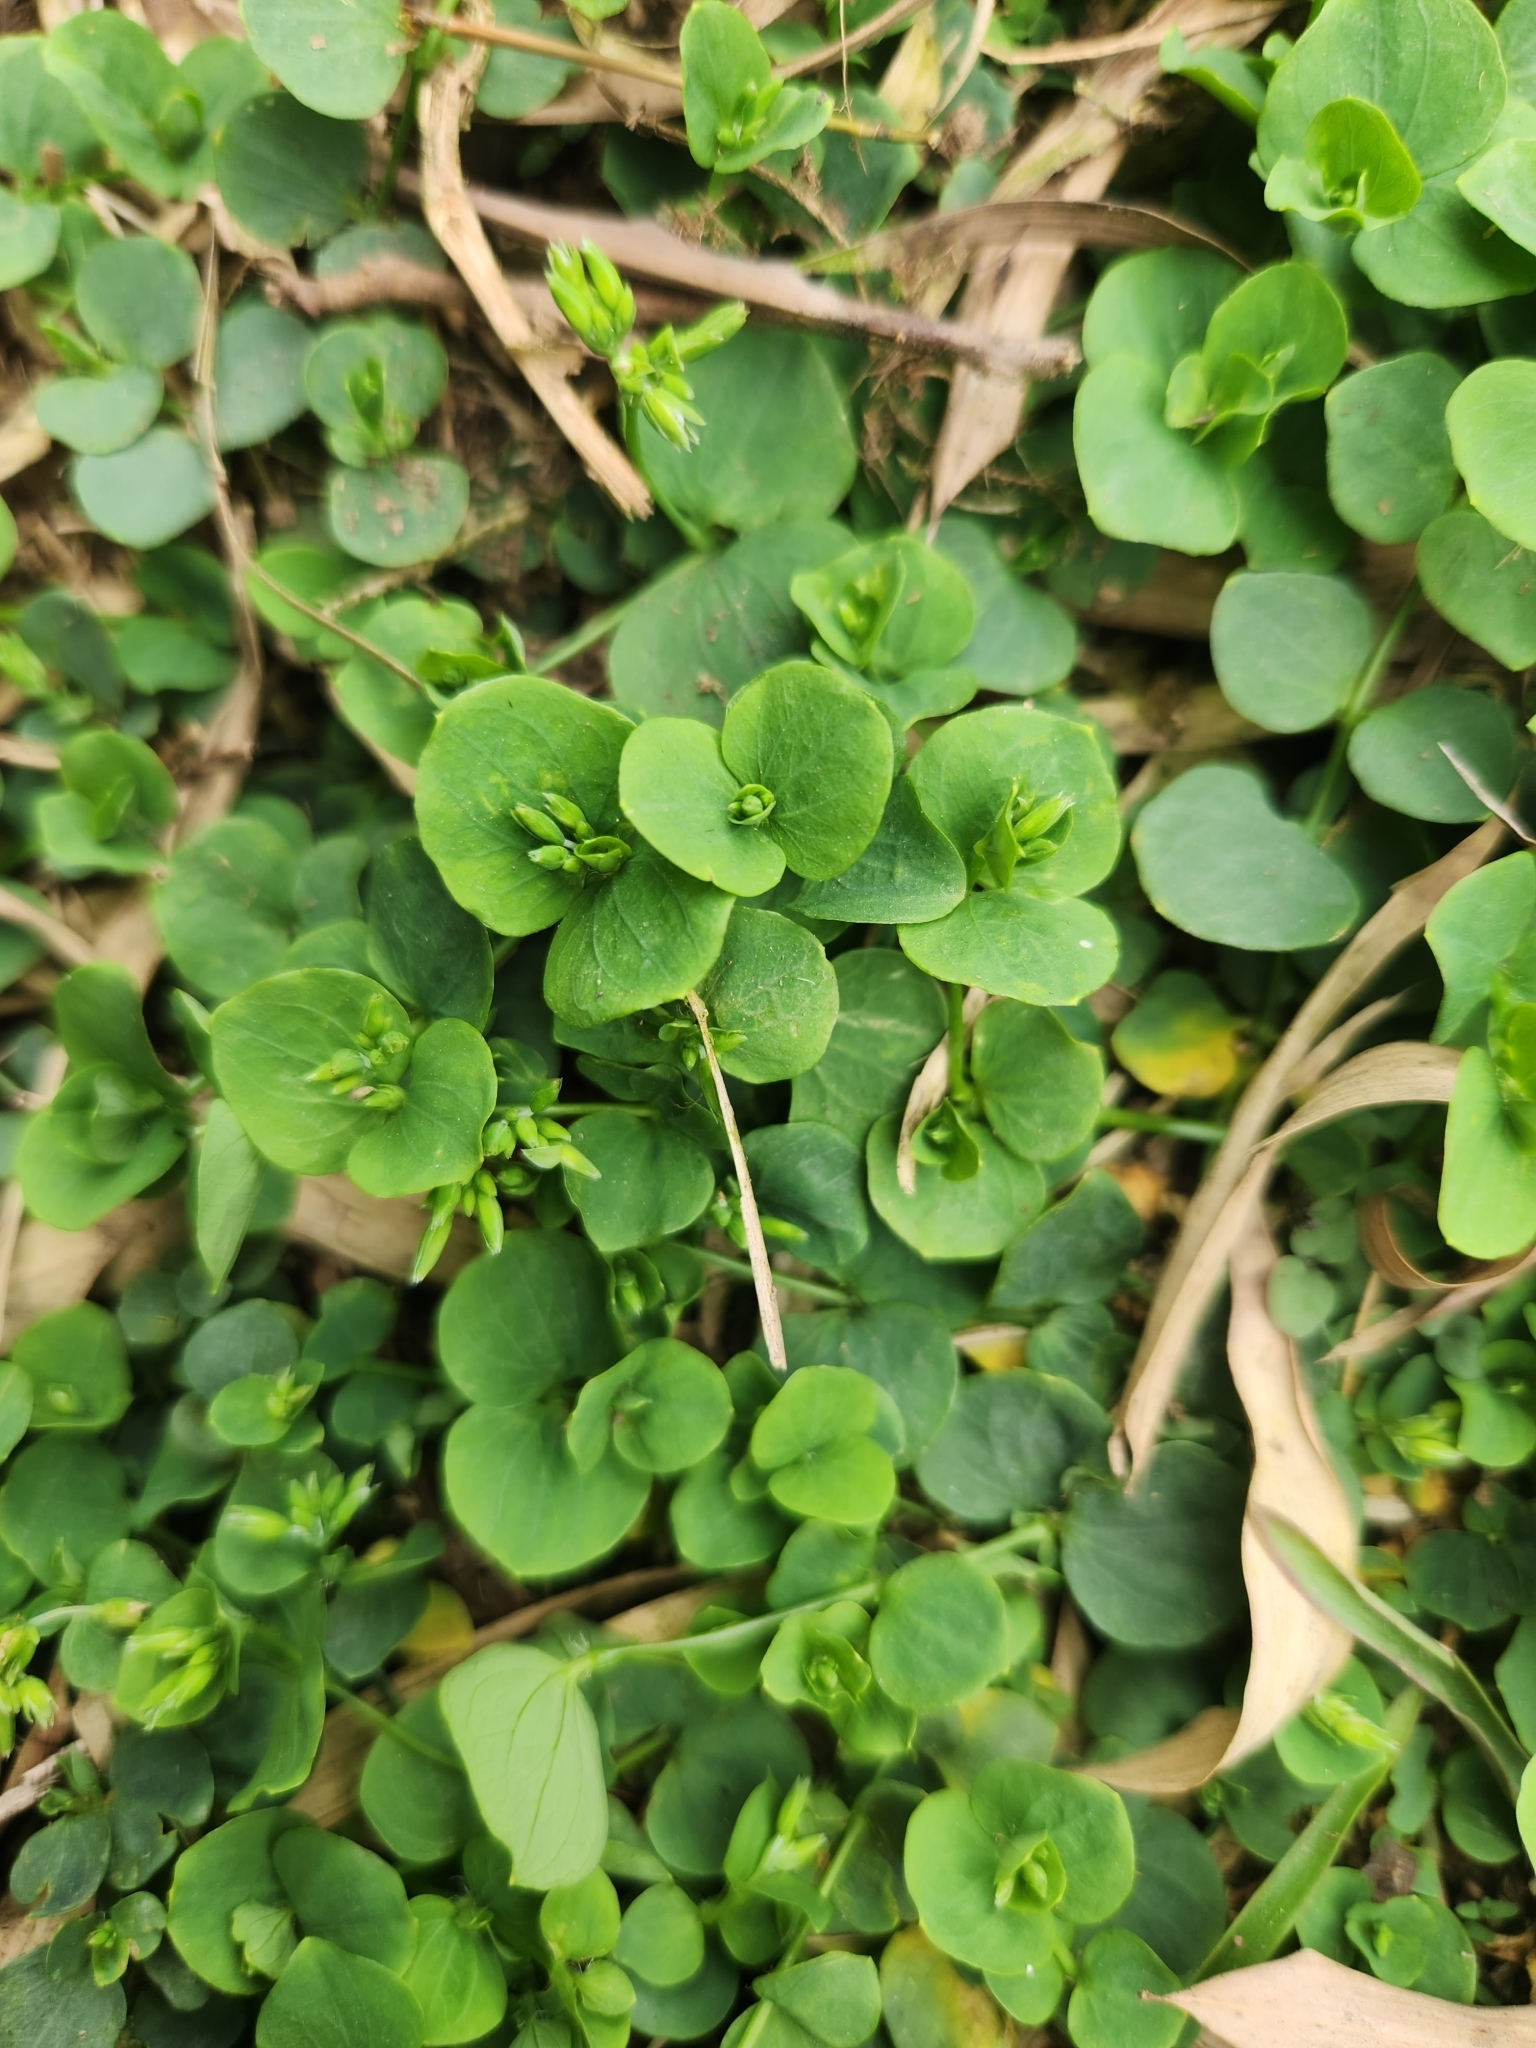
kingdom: Plantae
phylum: Tracheophyta
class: Magnoliopsida
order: Caryophyllales
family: Caryophyllaceae
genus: Drymaria
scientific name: Drymaria cordata
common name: Whitesnow
